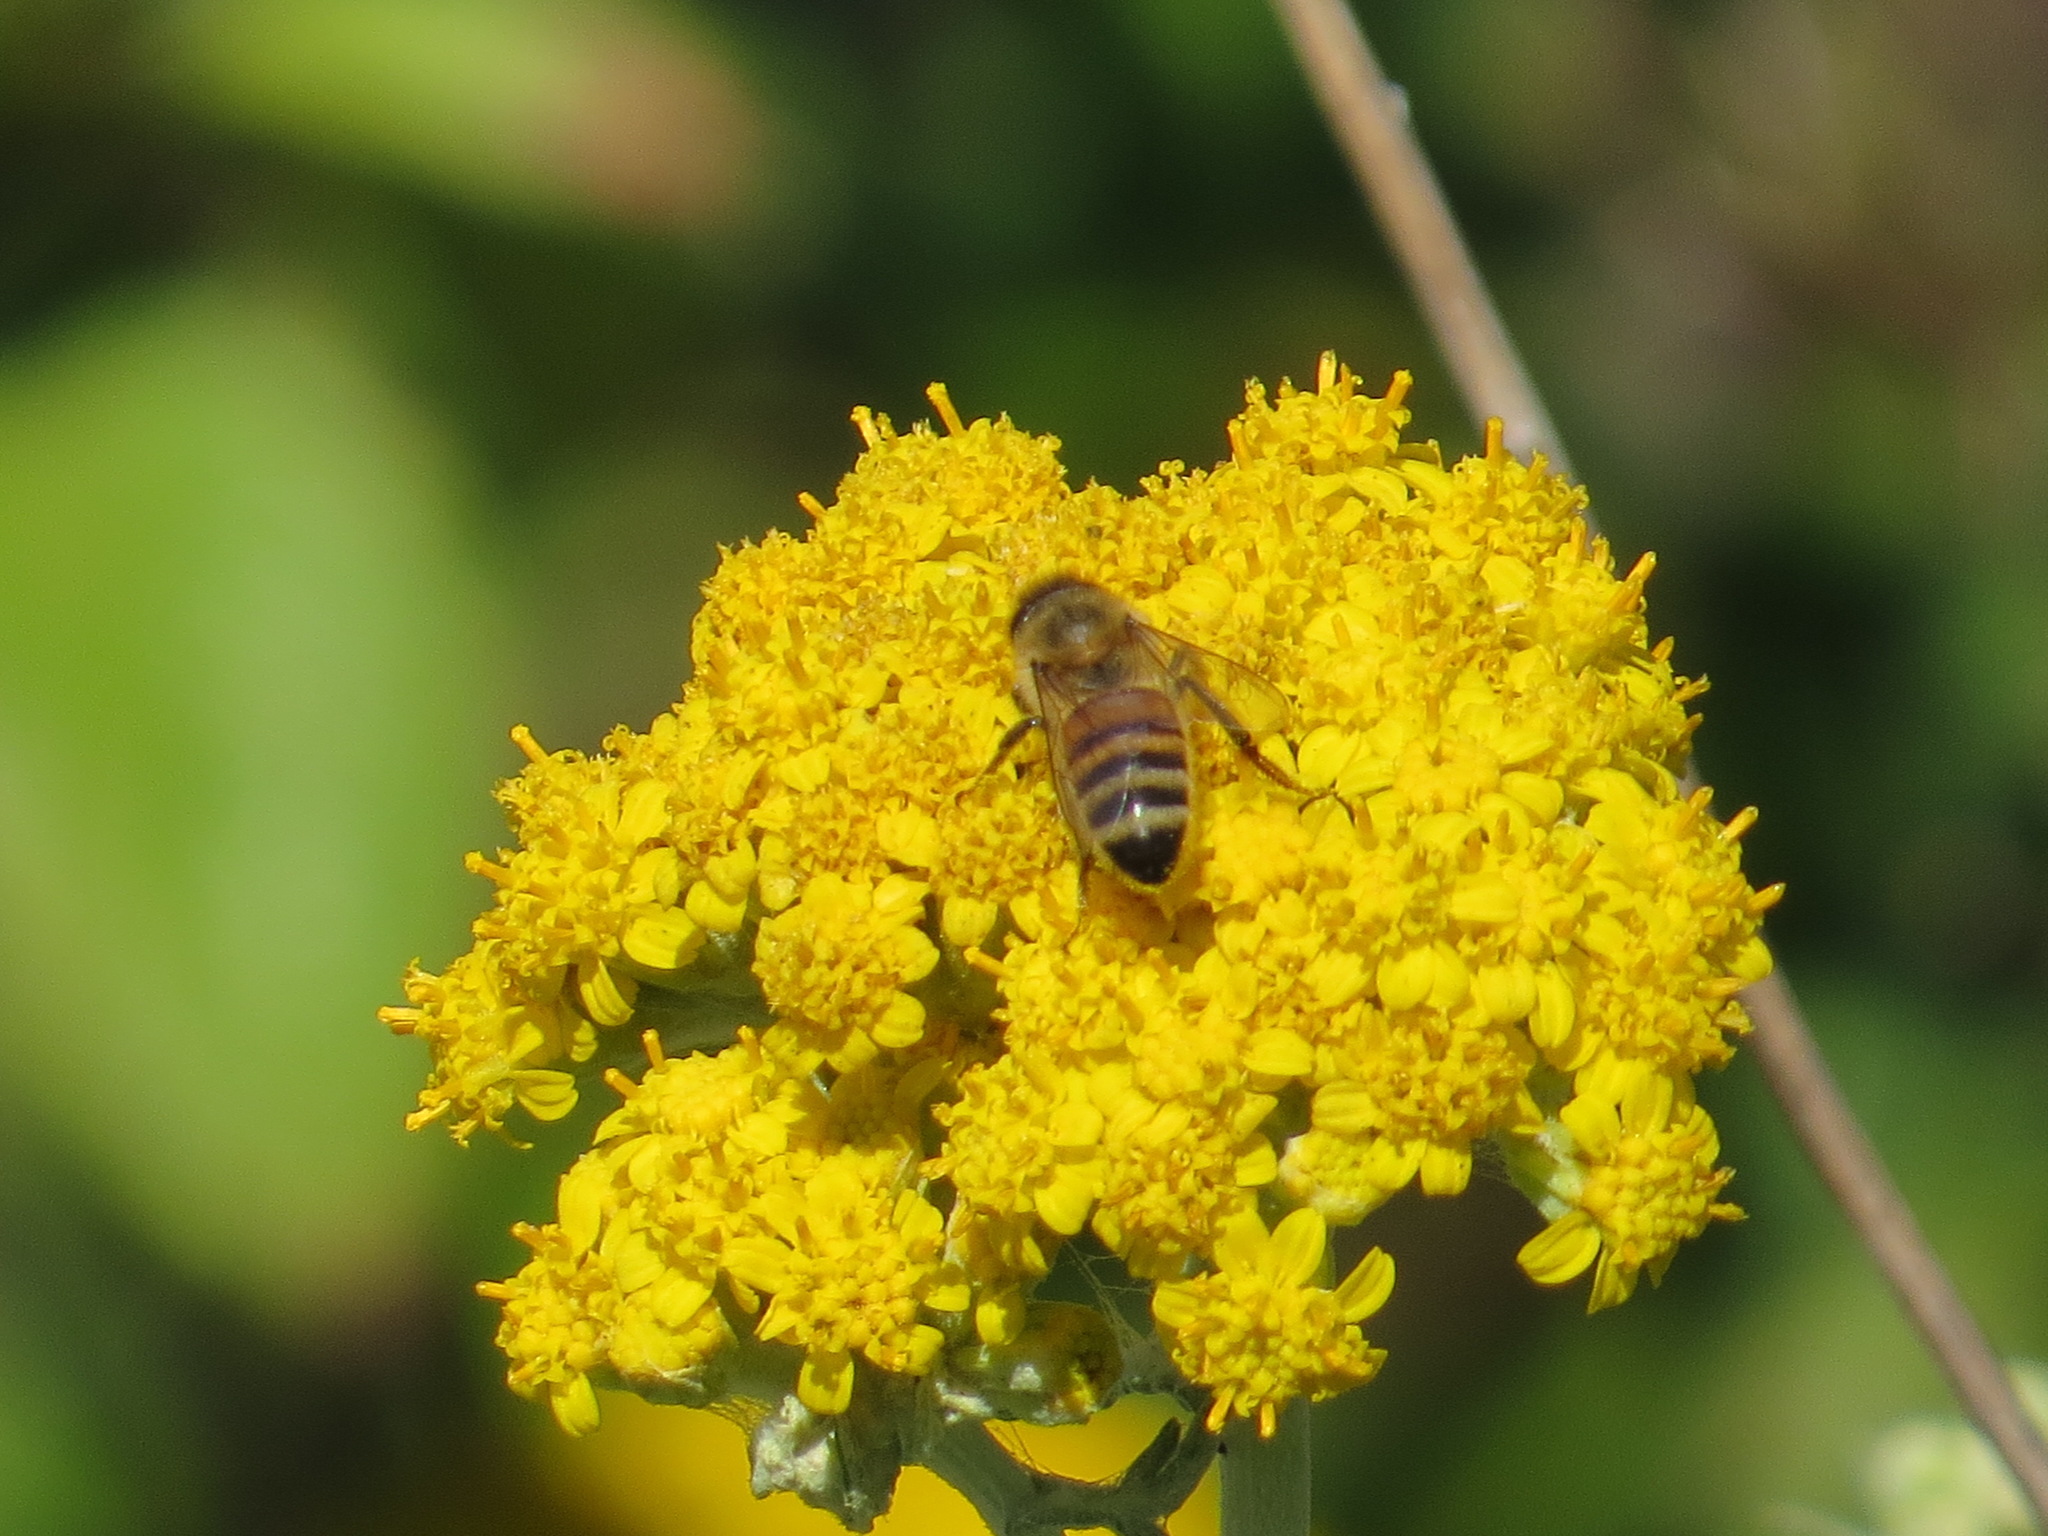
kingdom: Animalia
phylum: Arthropoda
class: Insecta
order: Hymenoptera
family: Apidae
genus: Apis
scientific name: Apis mellifera
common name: Honey bee
